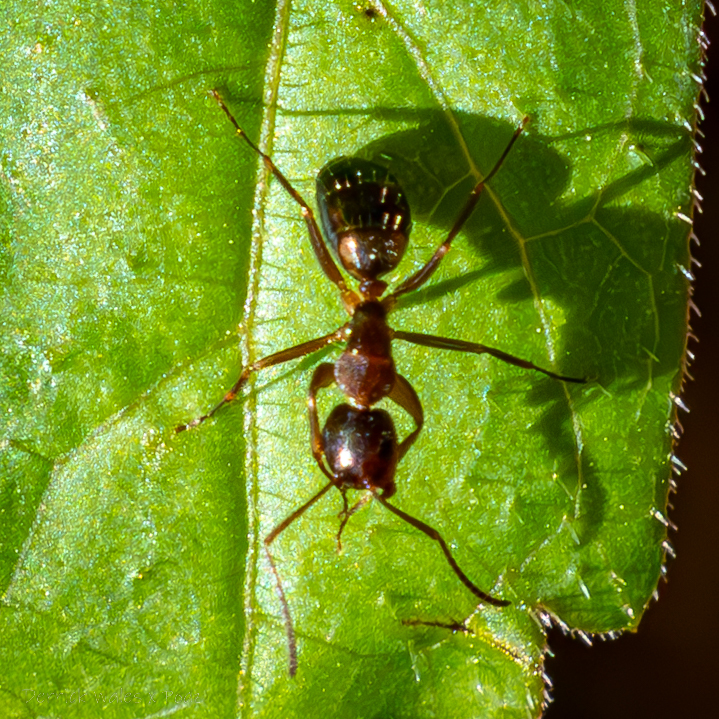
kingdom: Animalia
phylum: Arthropoda
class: Insecta
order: Hymenoptera
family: Formicidae
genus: Camponotus
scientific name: Camponotus subbarbatus
